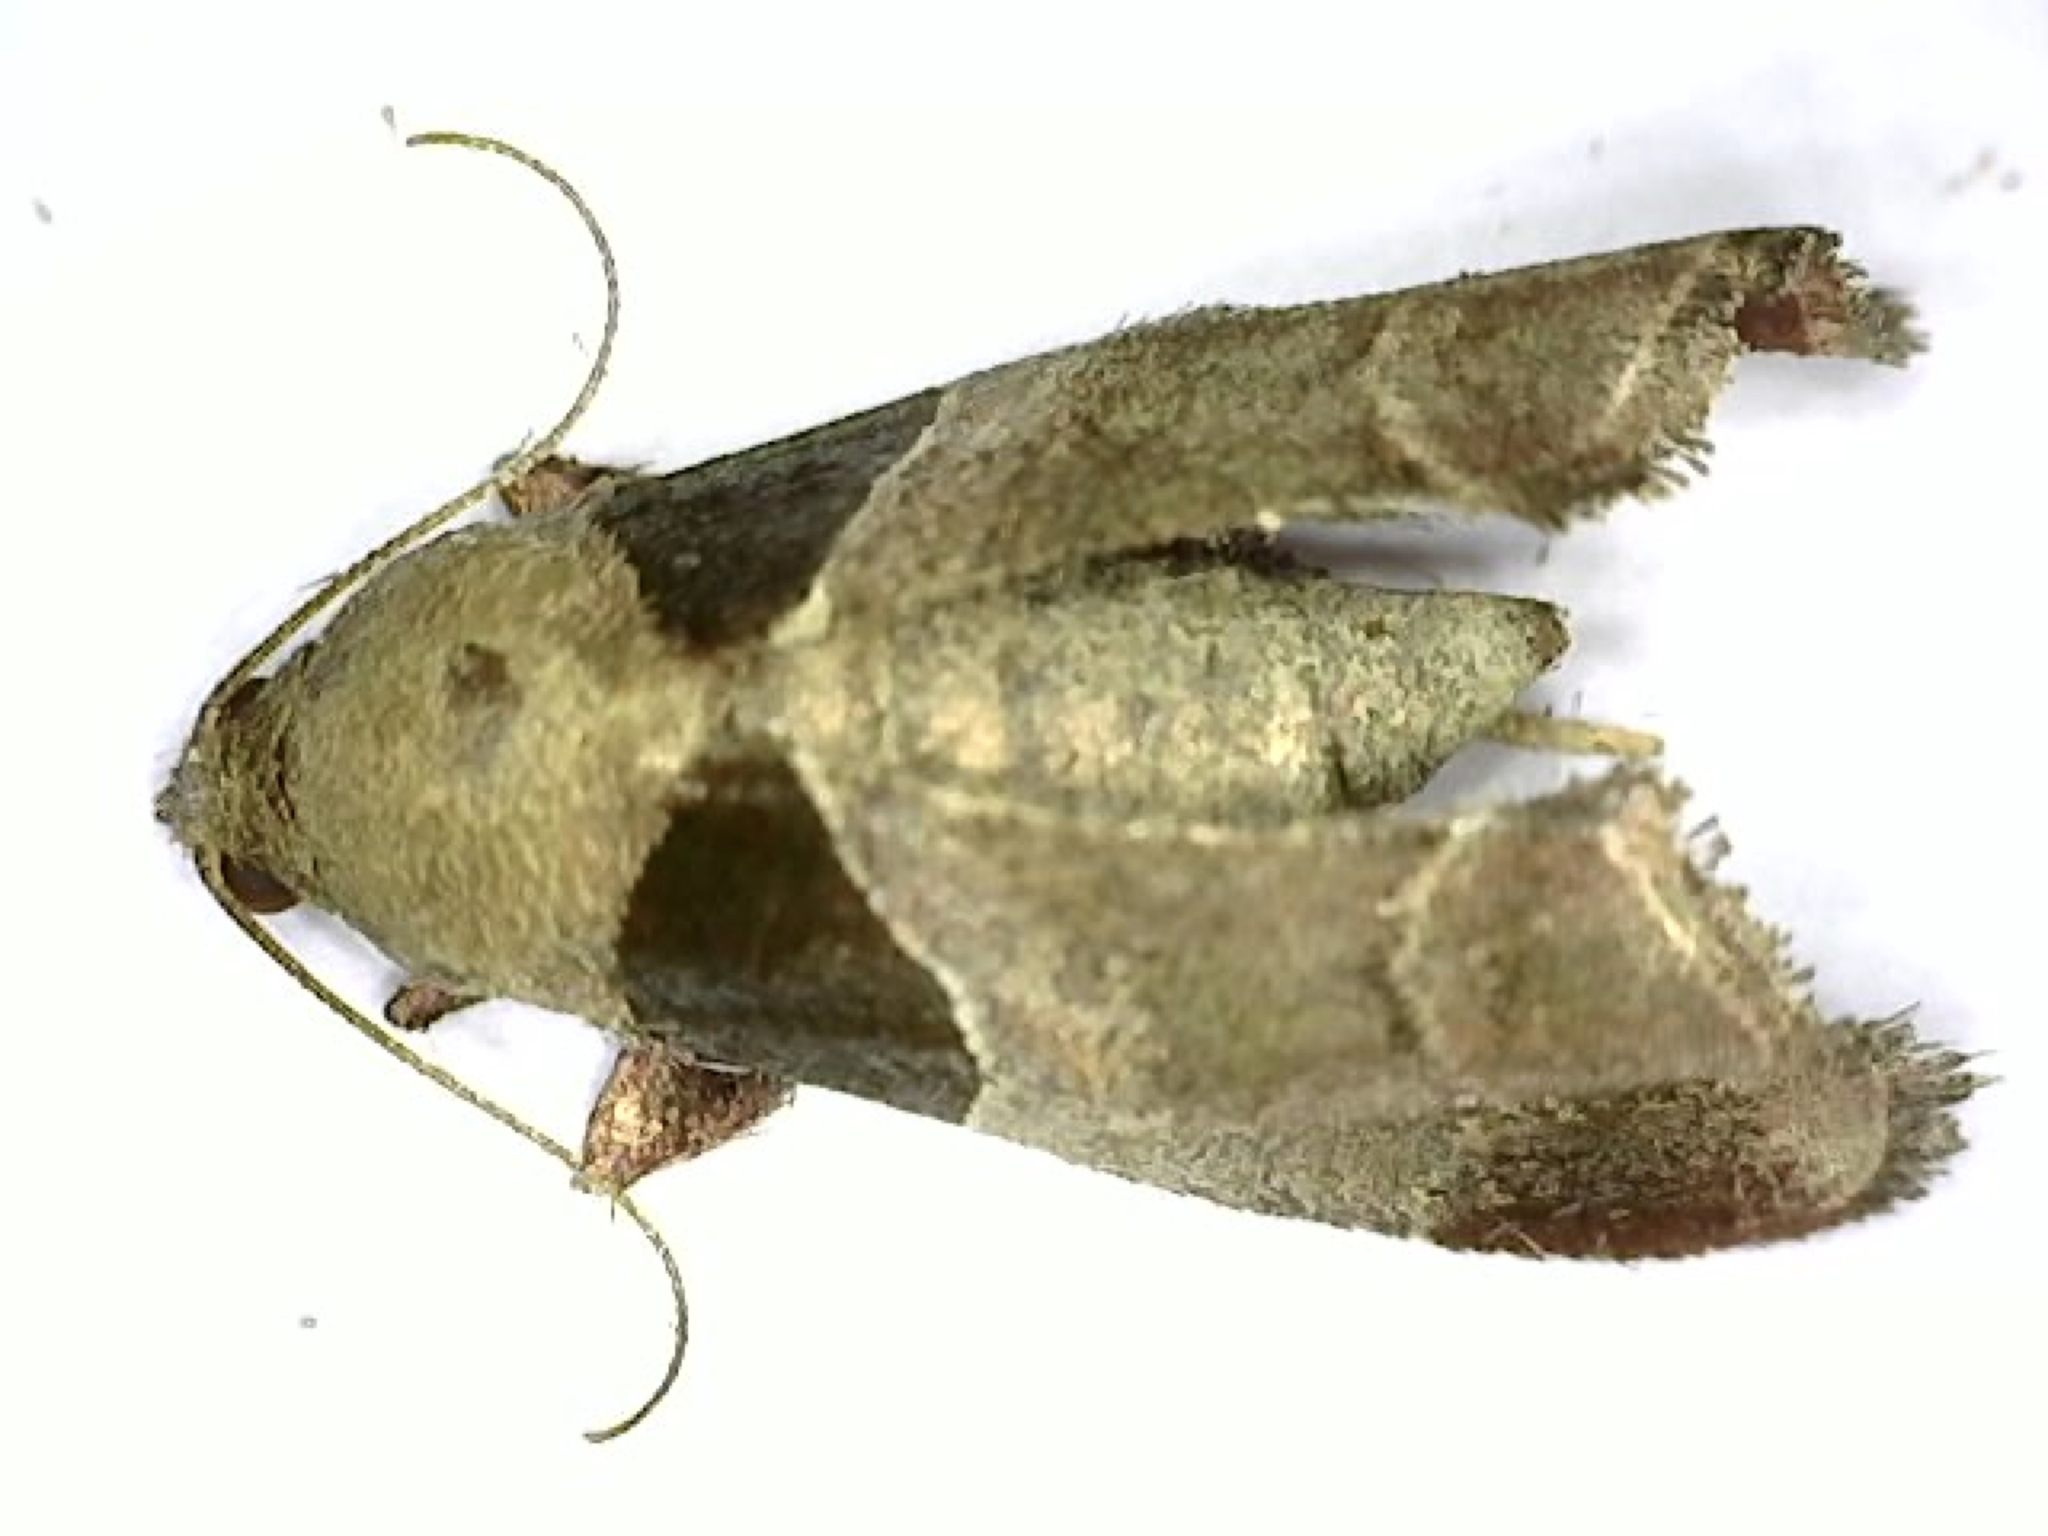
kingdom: Animalia
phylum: Arthropoda
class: Insecta
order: Lepidoptera
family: Pyralidae
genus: Tosale
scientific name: Tosale oviplagalis
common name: Dimorphic tosale moth
